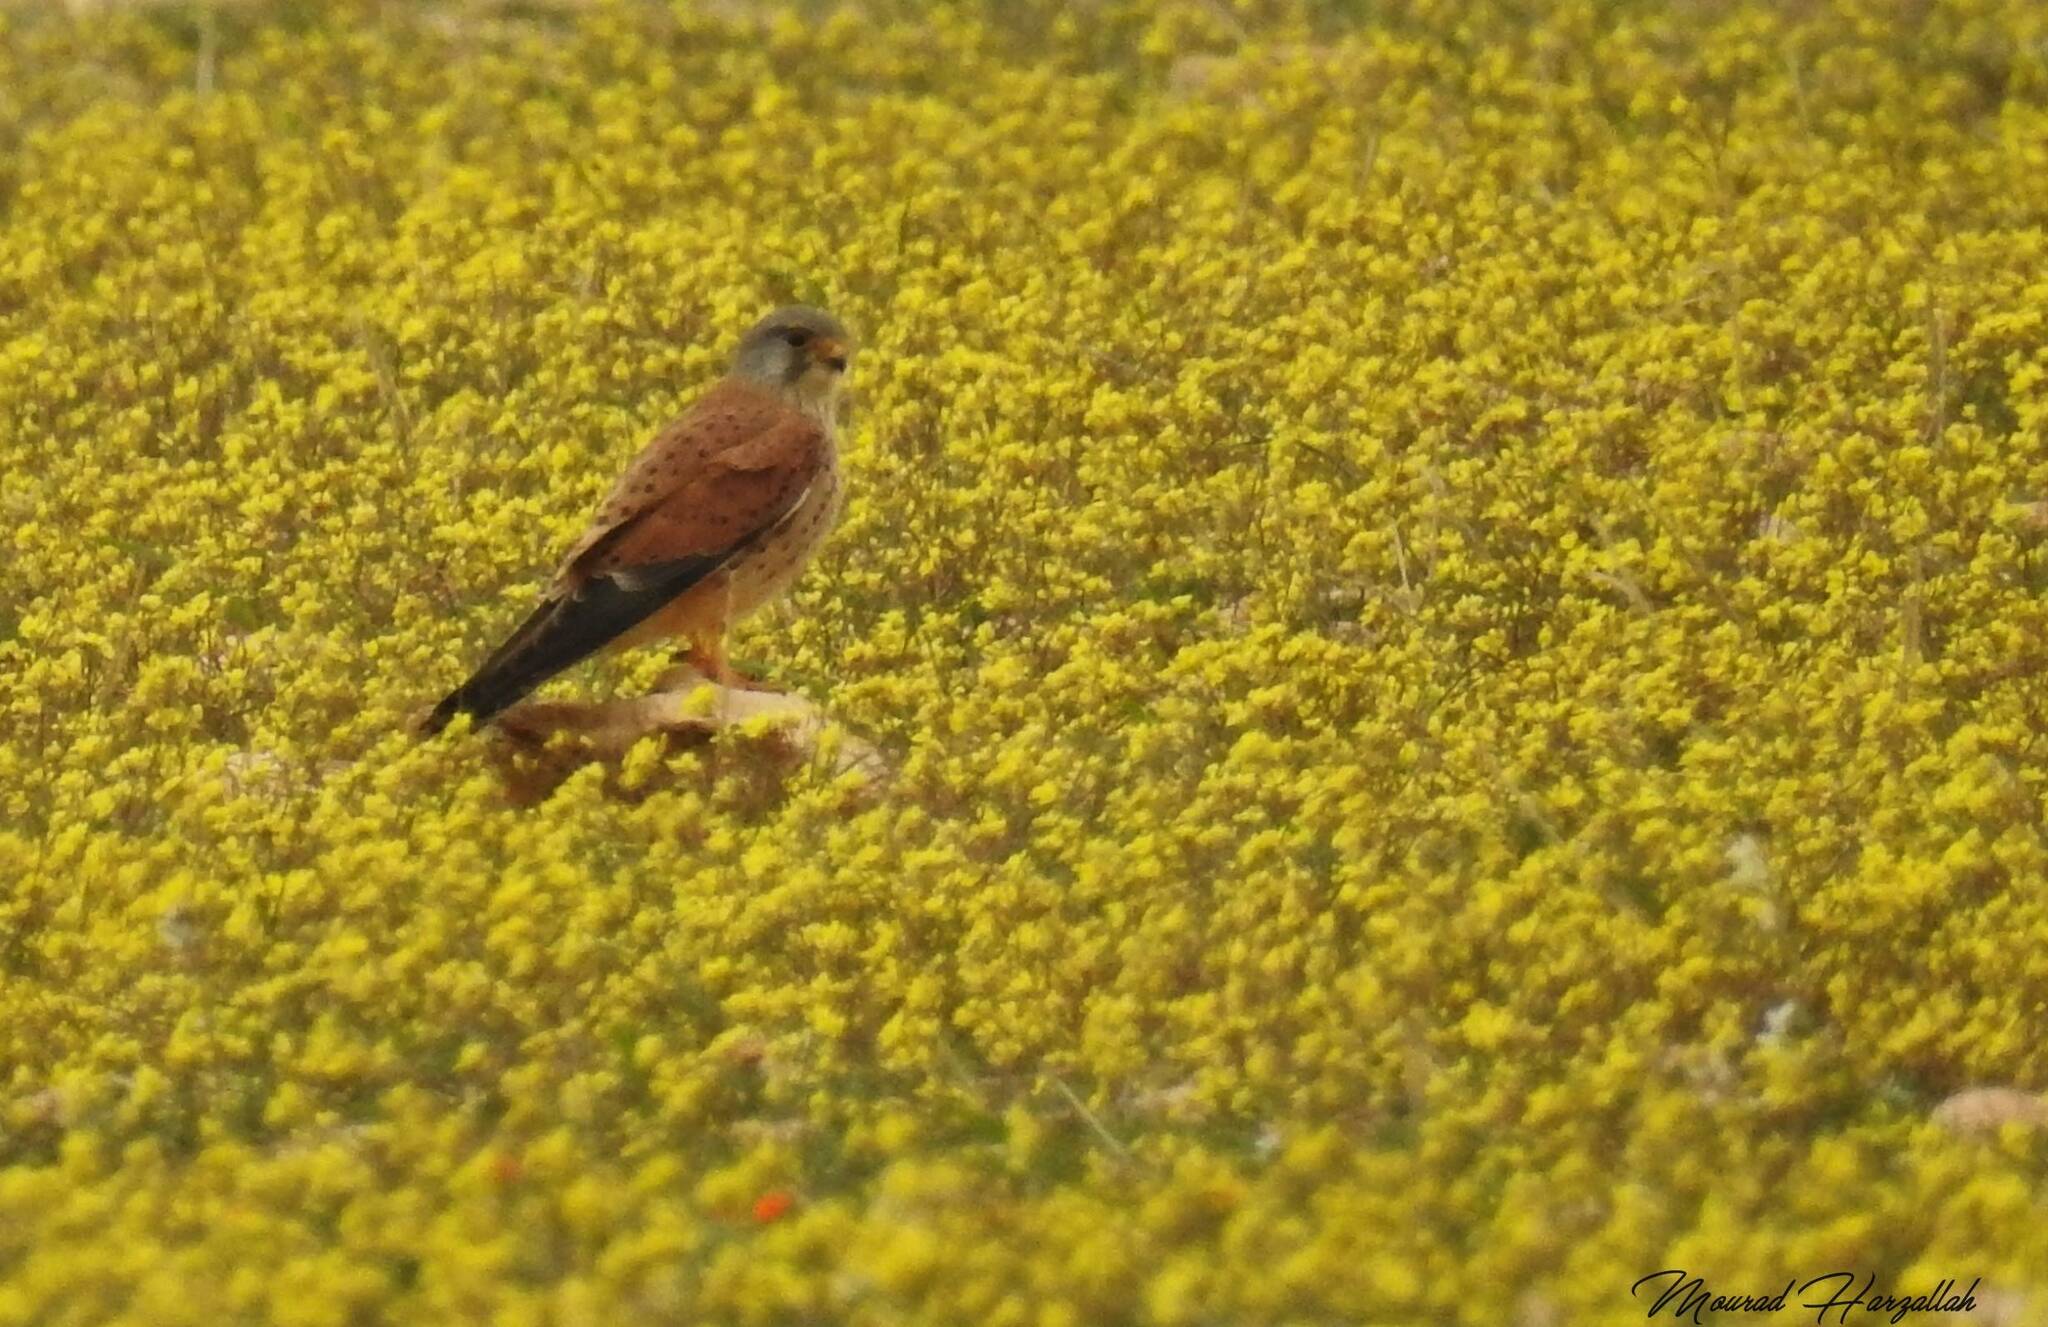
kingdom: Animalia
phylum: Chordata
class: Aves
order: Falconiformes
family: Falconidae
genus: Falco
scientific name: Falco tinnunculus
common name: Common kestrel
